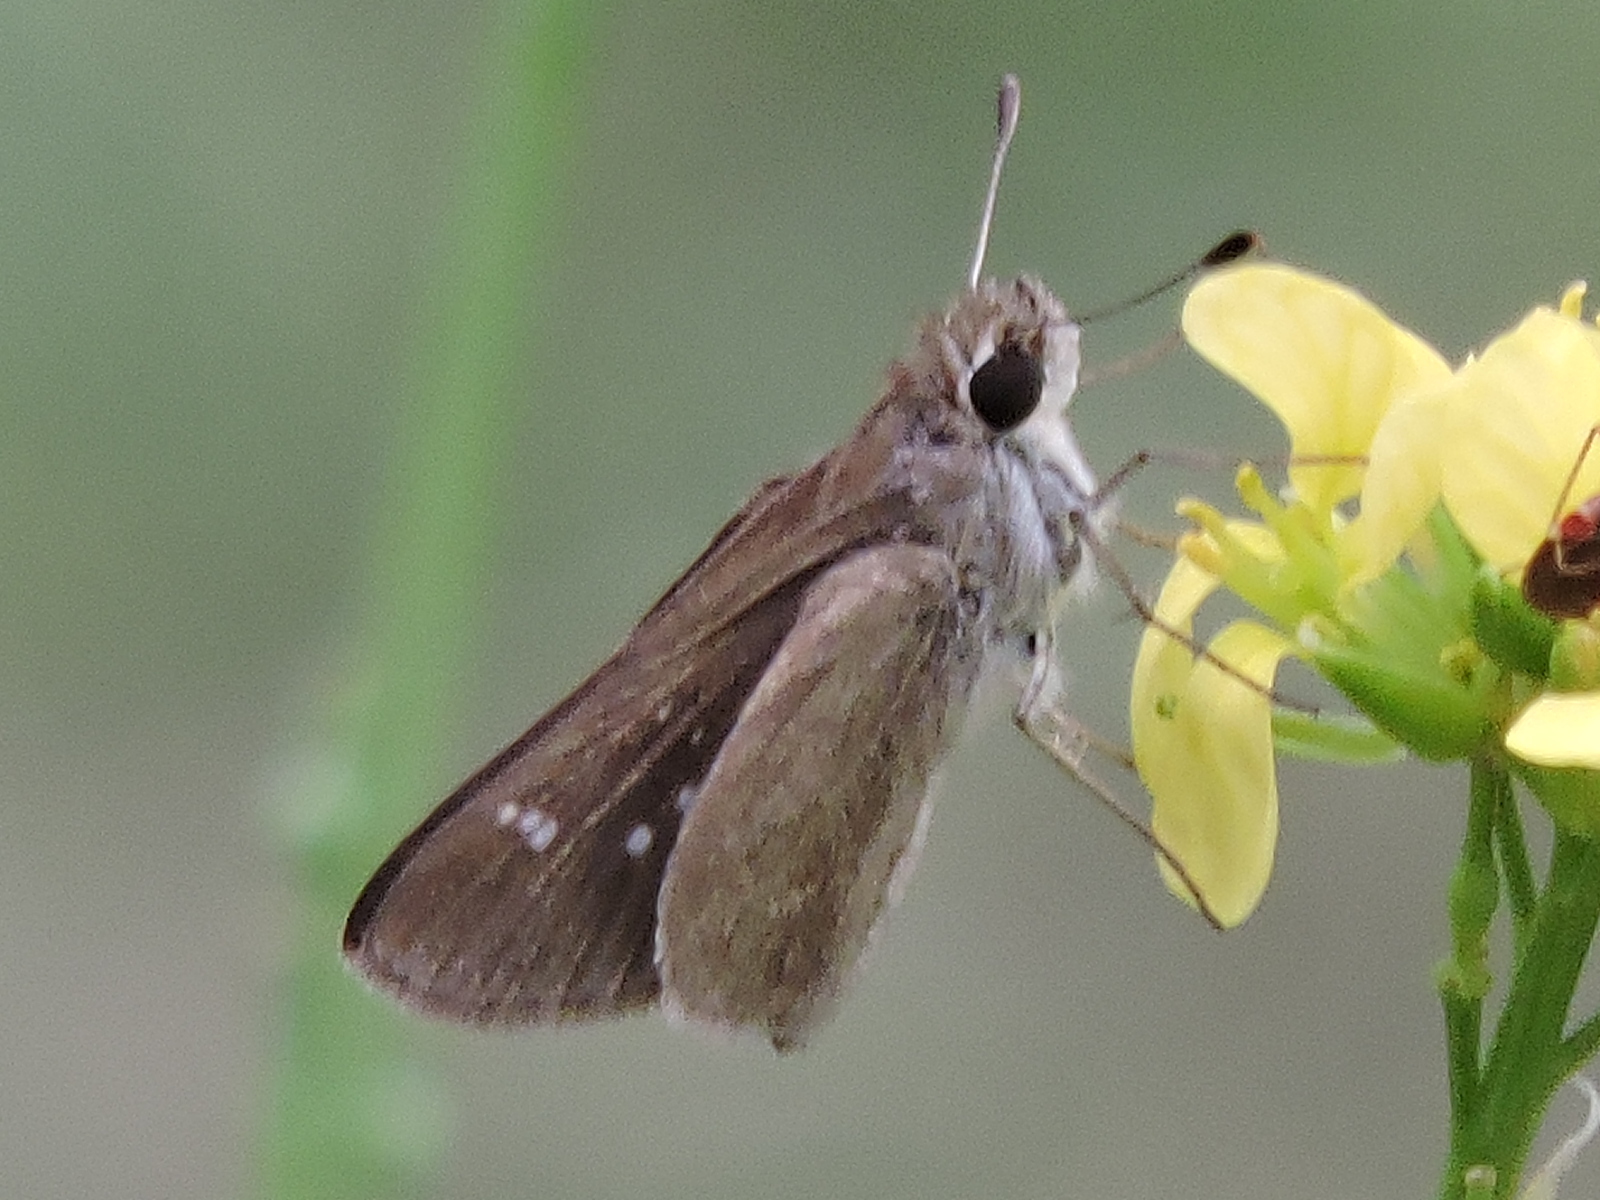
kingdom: Animalia
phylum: Arthropoda
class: Insecta
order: Lepidoptera
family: Hesperiidae
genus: Lerodea
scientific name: Lerodea eufala
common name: Eufala skipper
